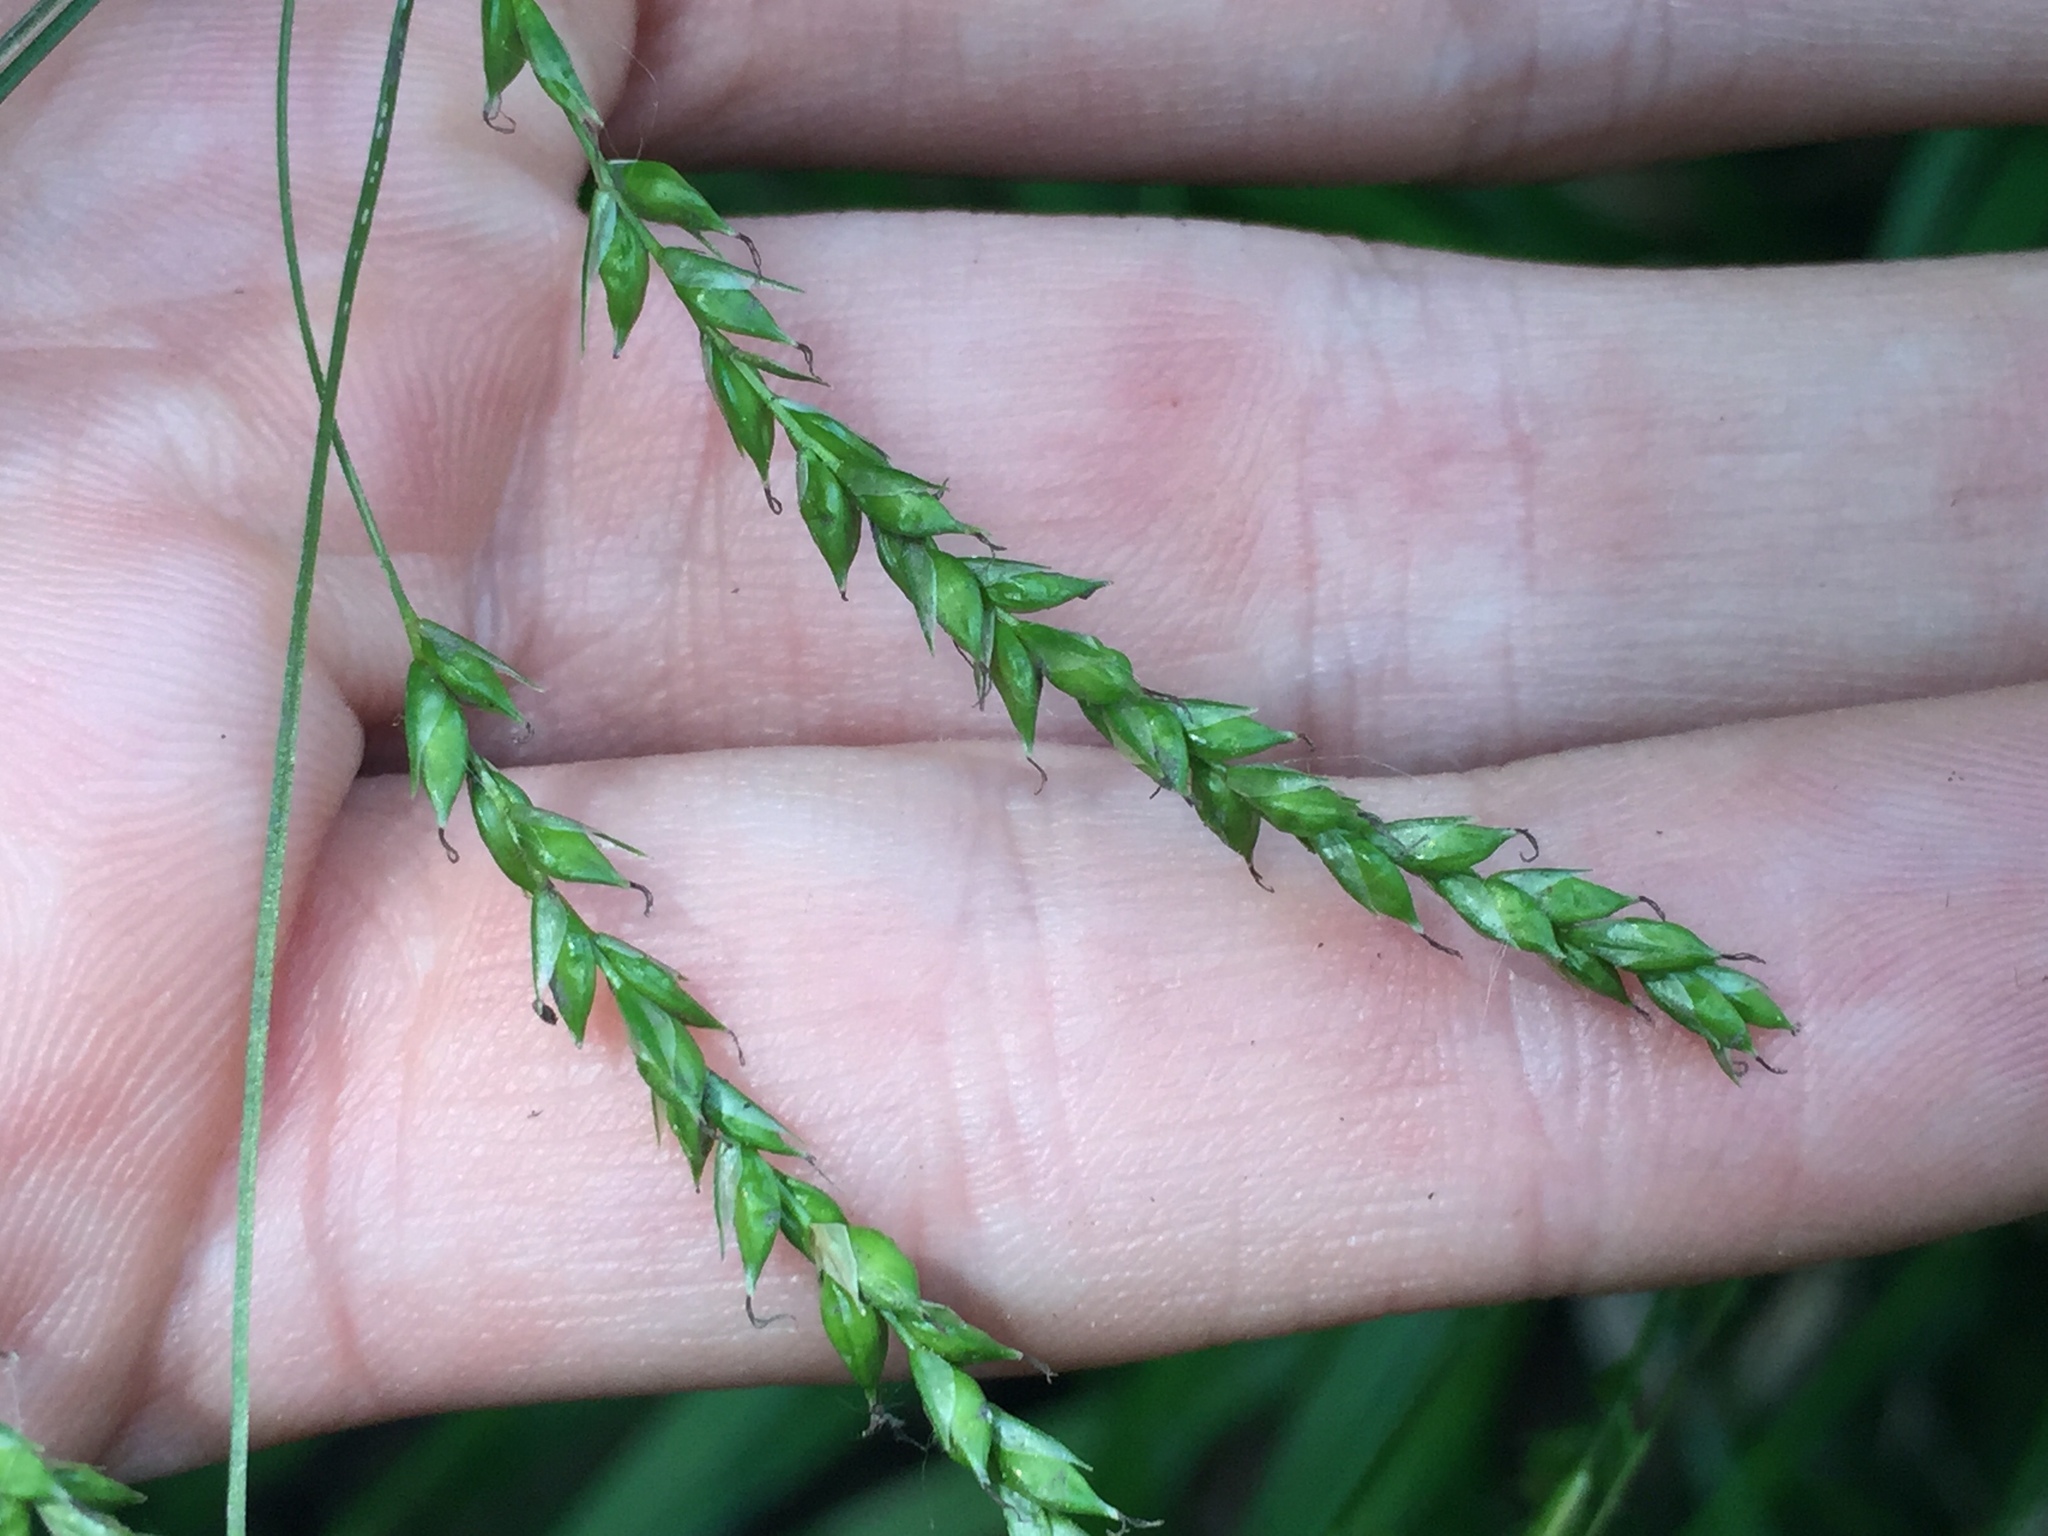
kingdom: Plantae
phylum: Tracheophyta
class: Liliopsida
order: Poales
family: Cyperaceae
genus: Carex
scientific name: Carex arctata
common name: Black sedge
